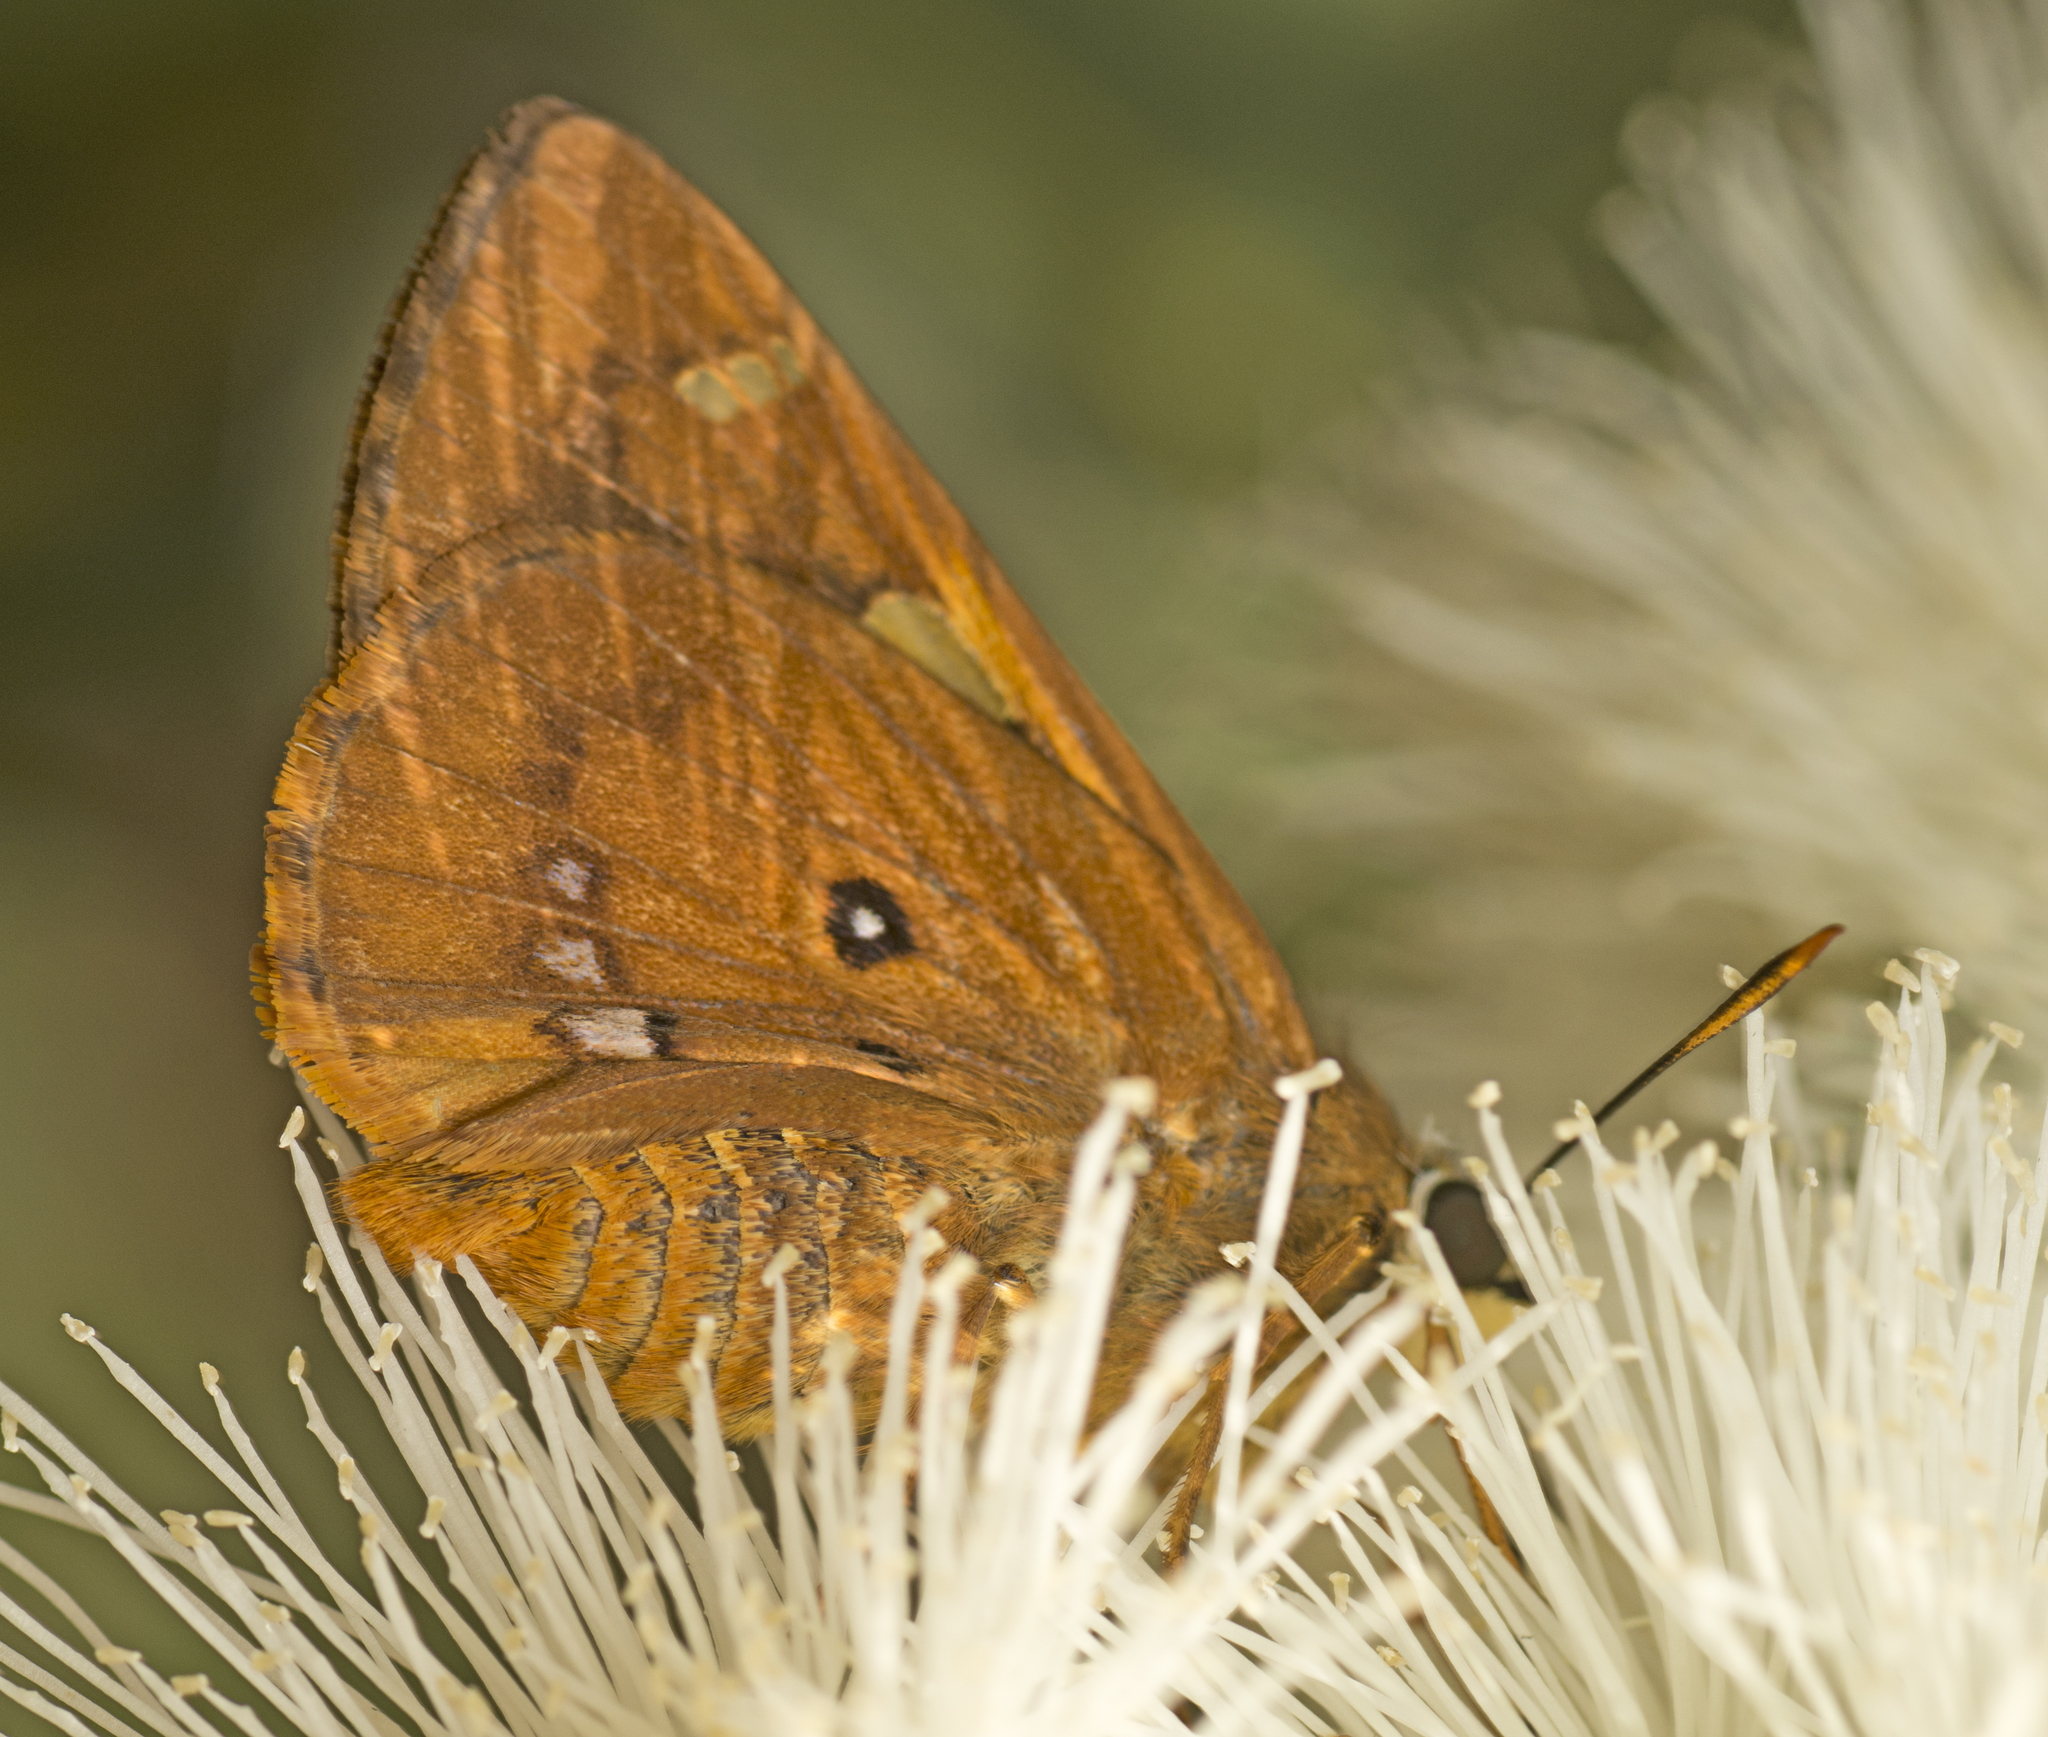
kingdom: Animalia
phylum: Arthropoda
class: Insecta
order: Lepidoptera
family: Hesperiidae
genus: Trapezites
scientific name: Trapezites symmomus
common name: Splendid ochre
